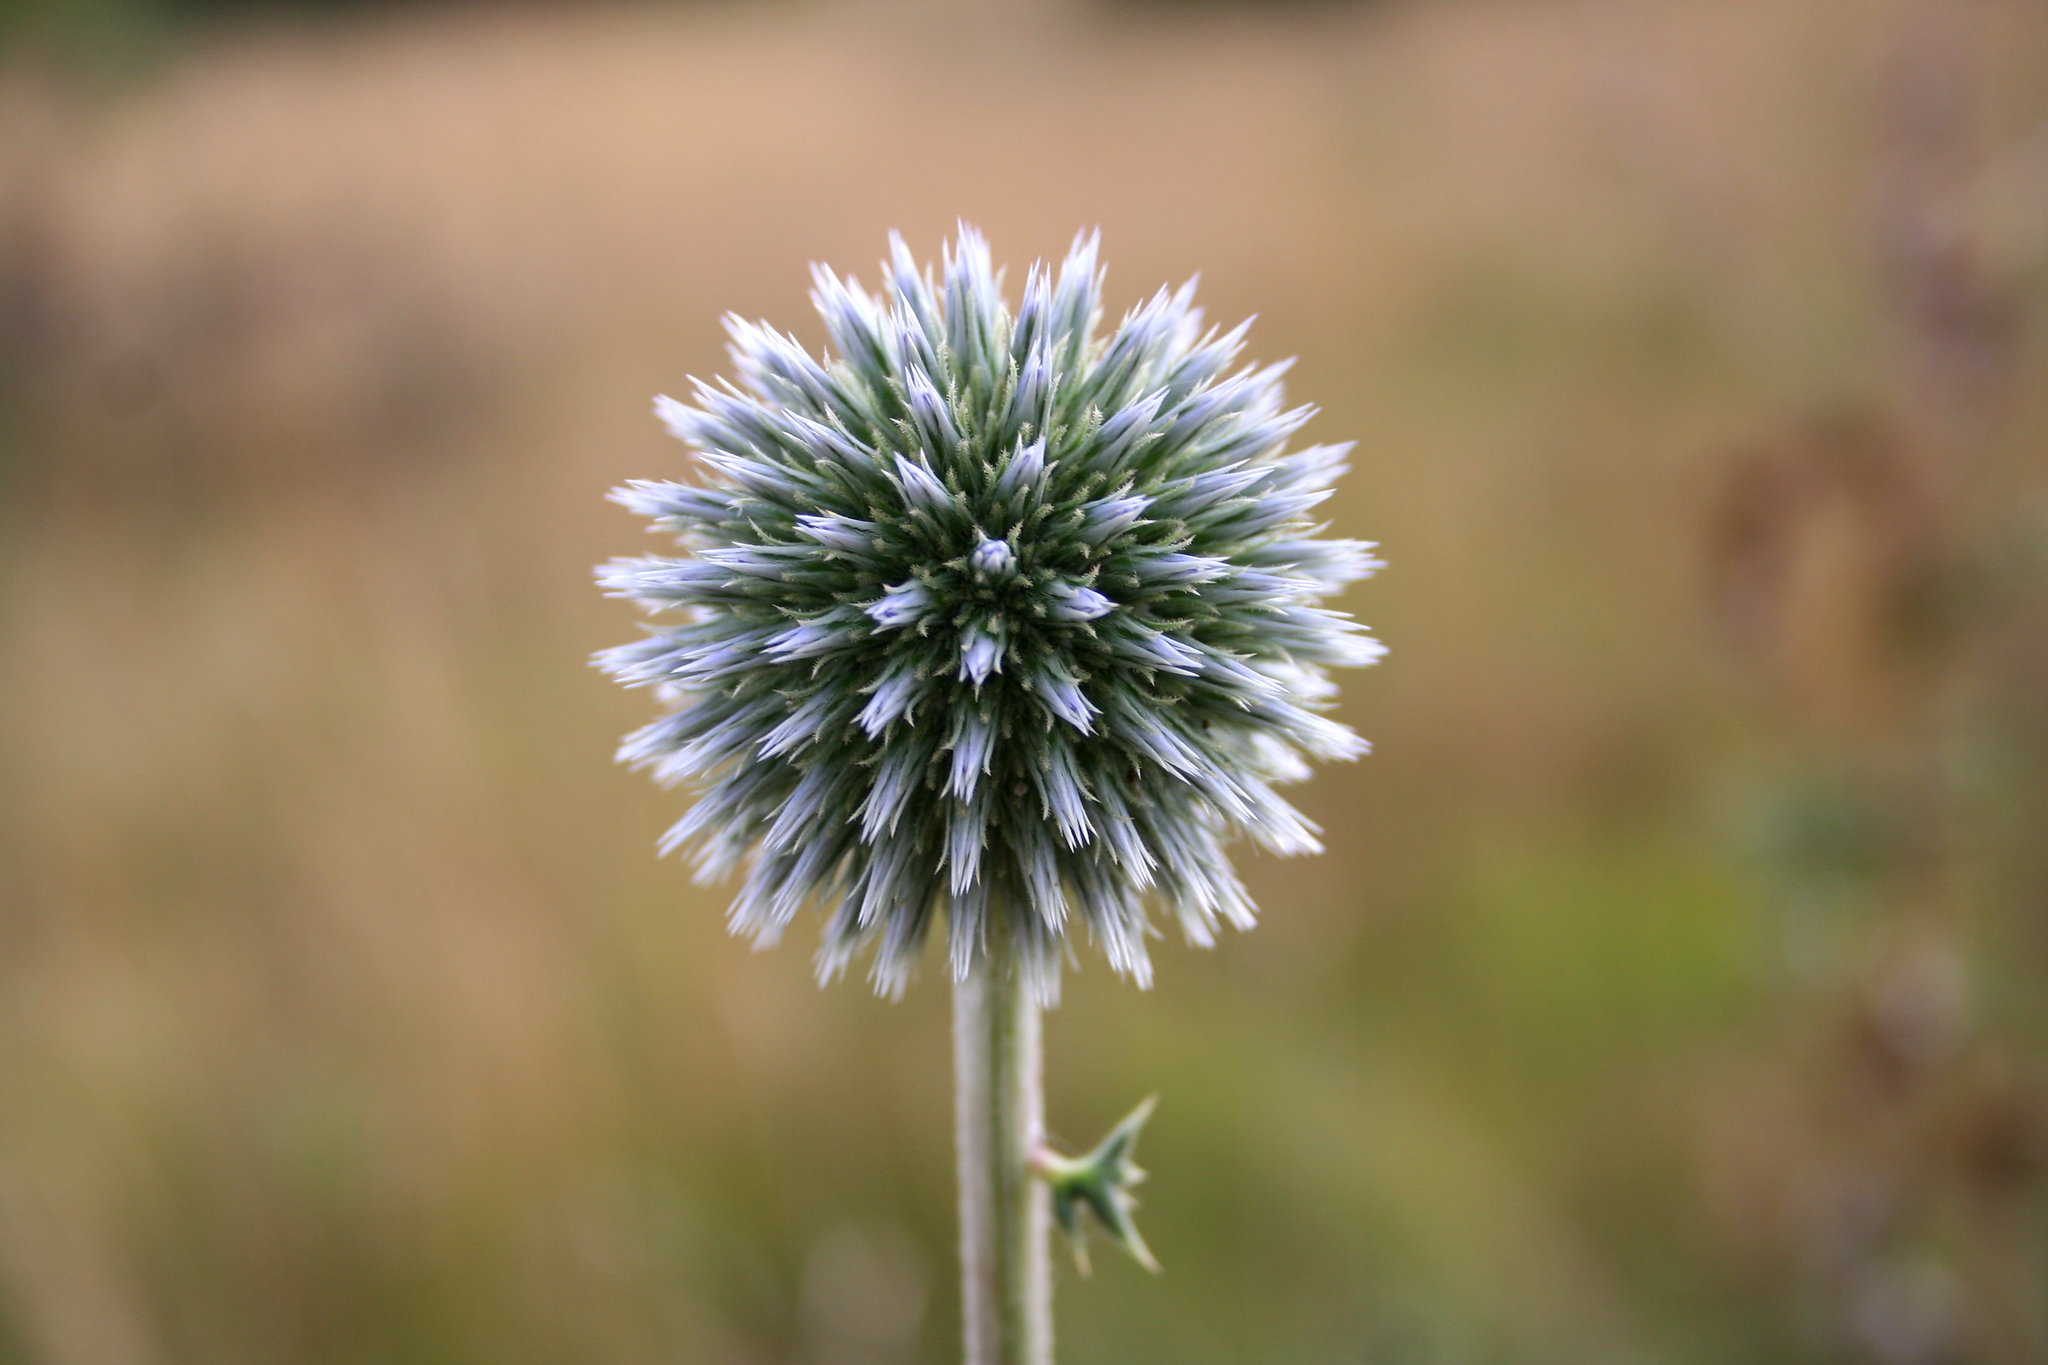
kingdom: Plantae
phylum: Tracheophyta
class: Magnoliopsida
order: Asterales
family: Asteraceae
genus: Echinops
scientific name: Echinops ritro
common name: Globe thistle
